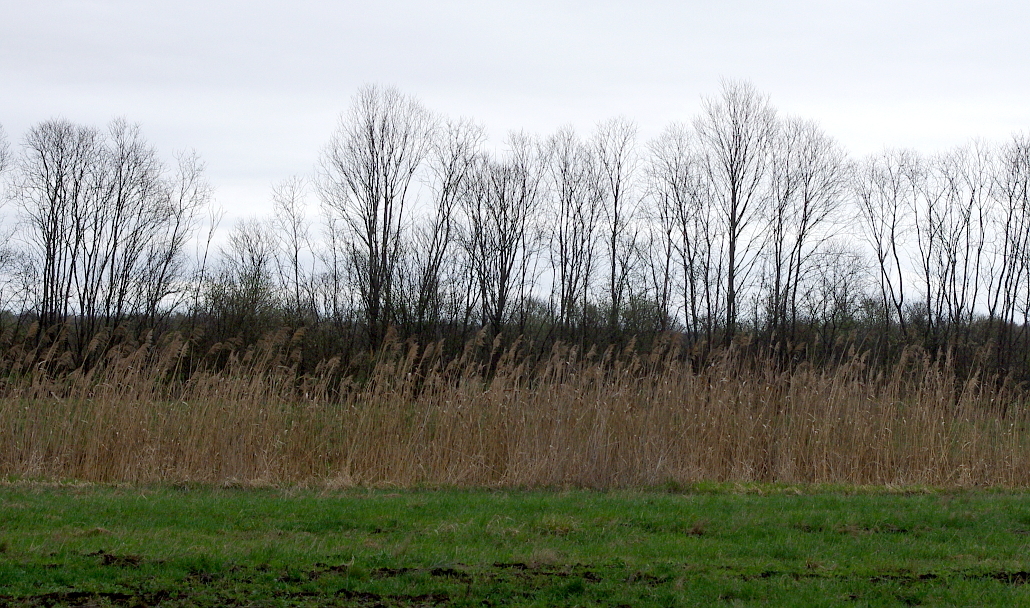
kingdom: Plantae
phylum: Tracheophyta
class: Liliopsida
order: Poales
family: Poaceae
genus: Phragmites
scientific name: Phragmites australis
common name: Common reed
